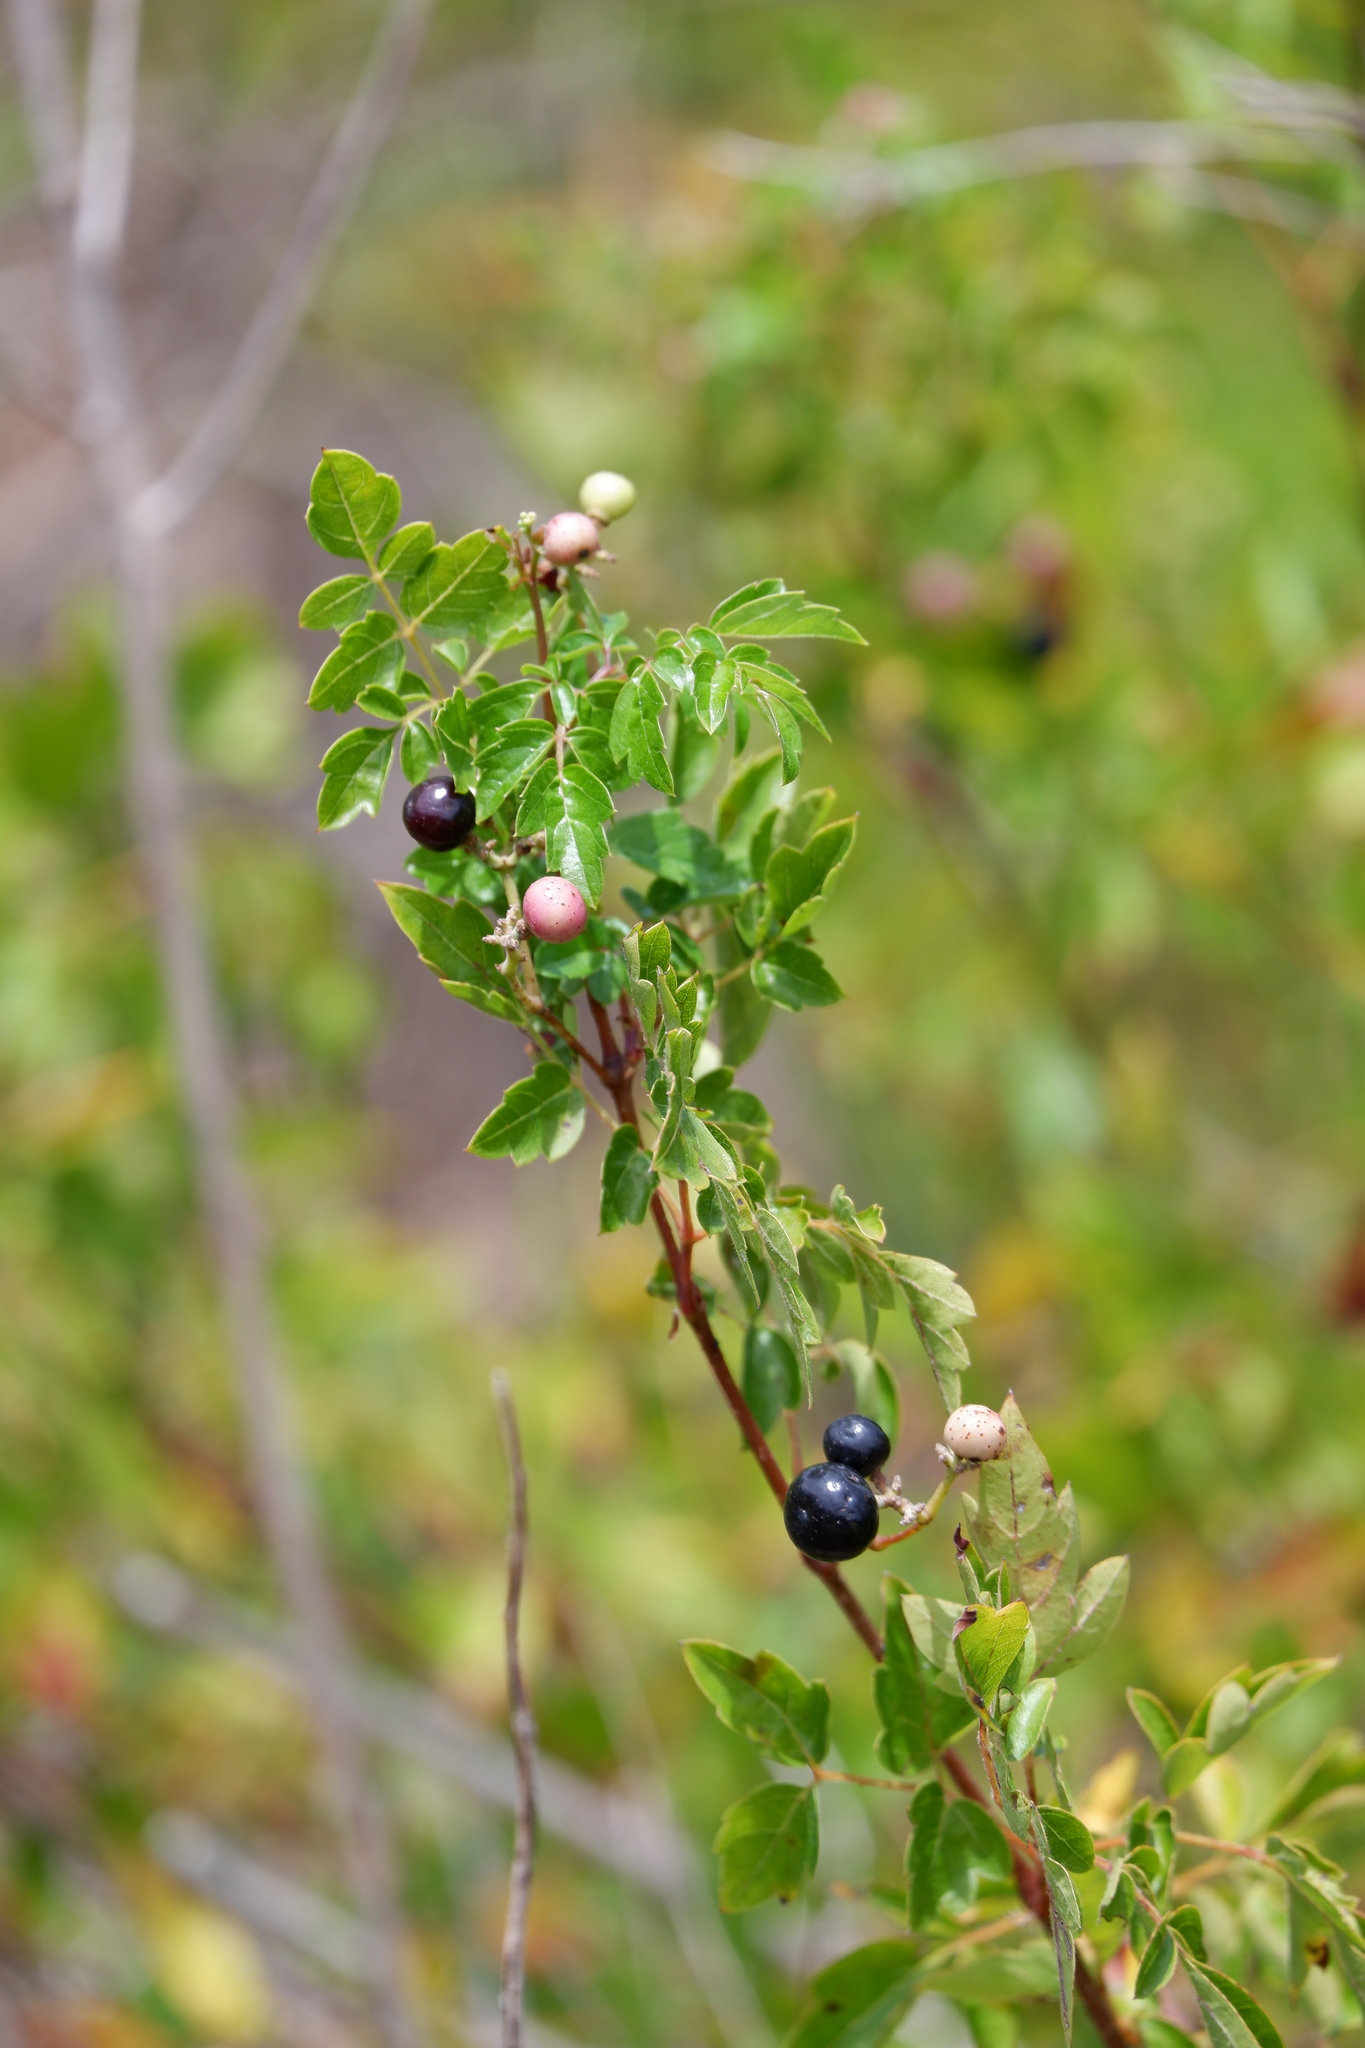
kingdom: Plantae
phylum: Tracheophyta
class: Magnoliopsida
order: Vitales
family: Vitaceae
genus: Nekemias
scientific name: Nekemias arborea
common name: Peppervine
